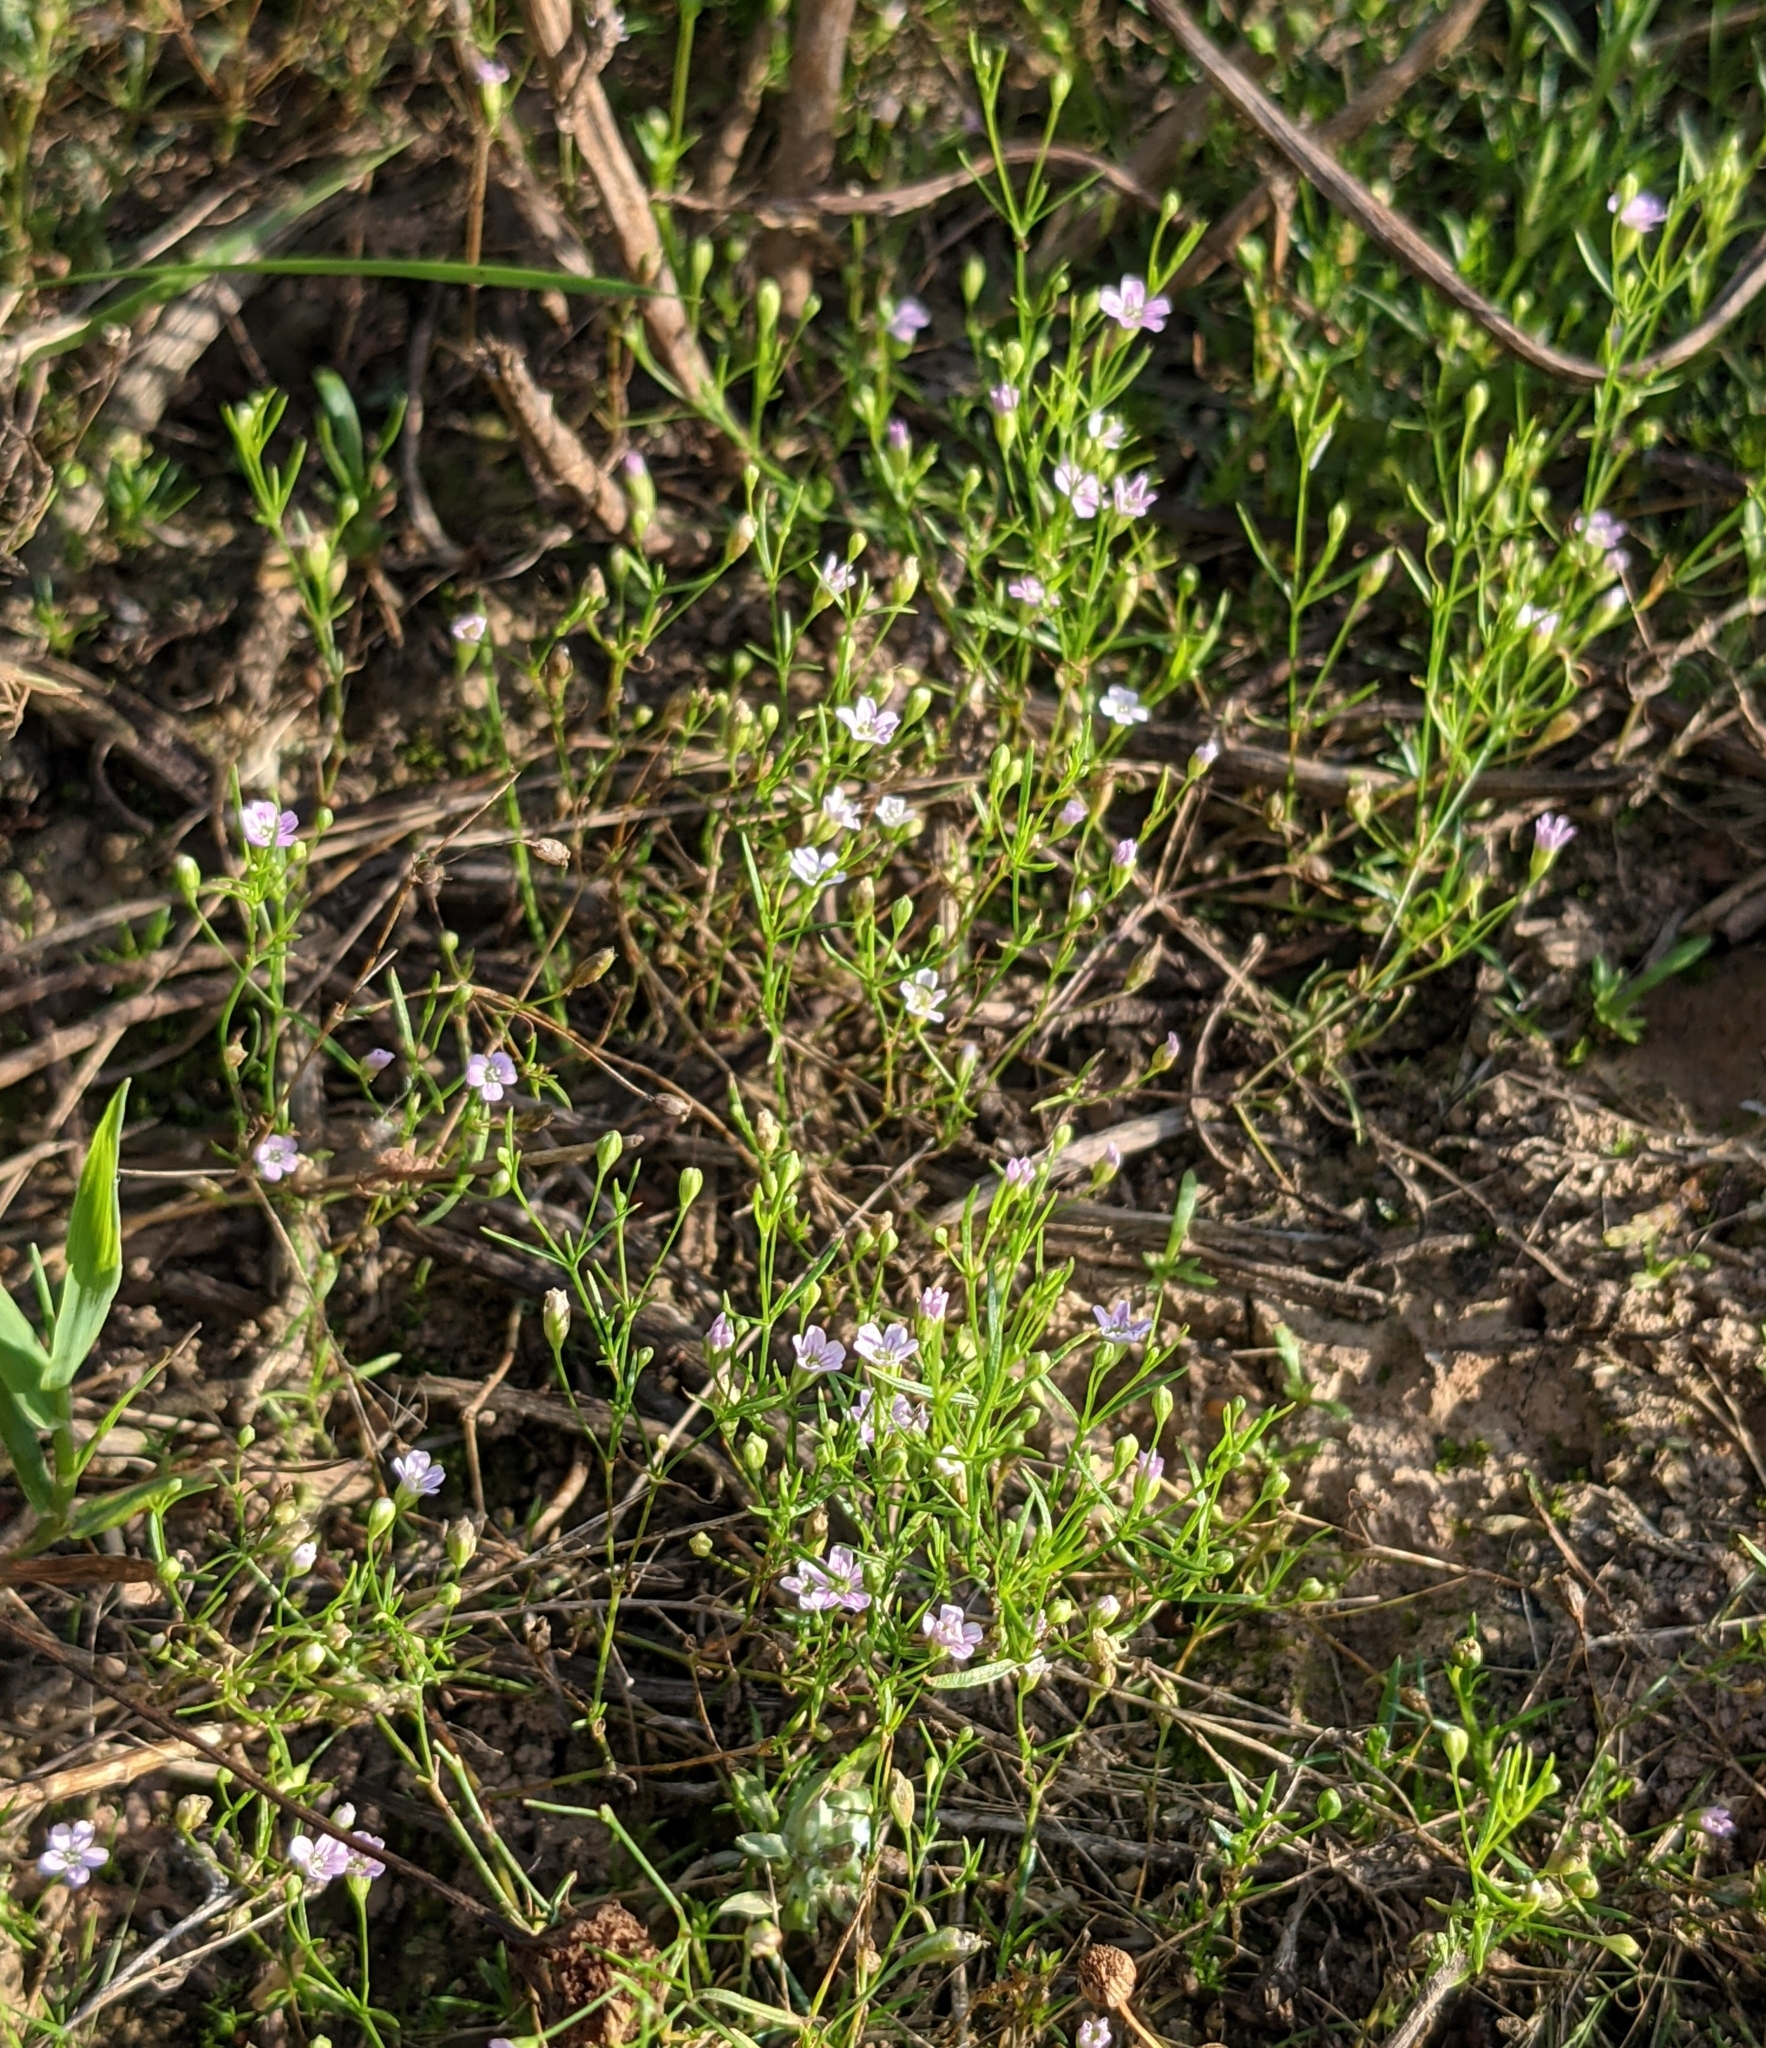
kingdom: Plantae
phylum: Tracheophyta
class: Magnoliopsida
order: Caryophyllales
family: Caryophyllaceae
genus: Psammophiliella
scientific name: Psammophiliella muralis
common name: Cushion baby's-breath
